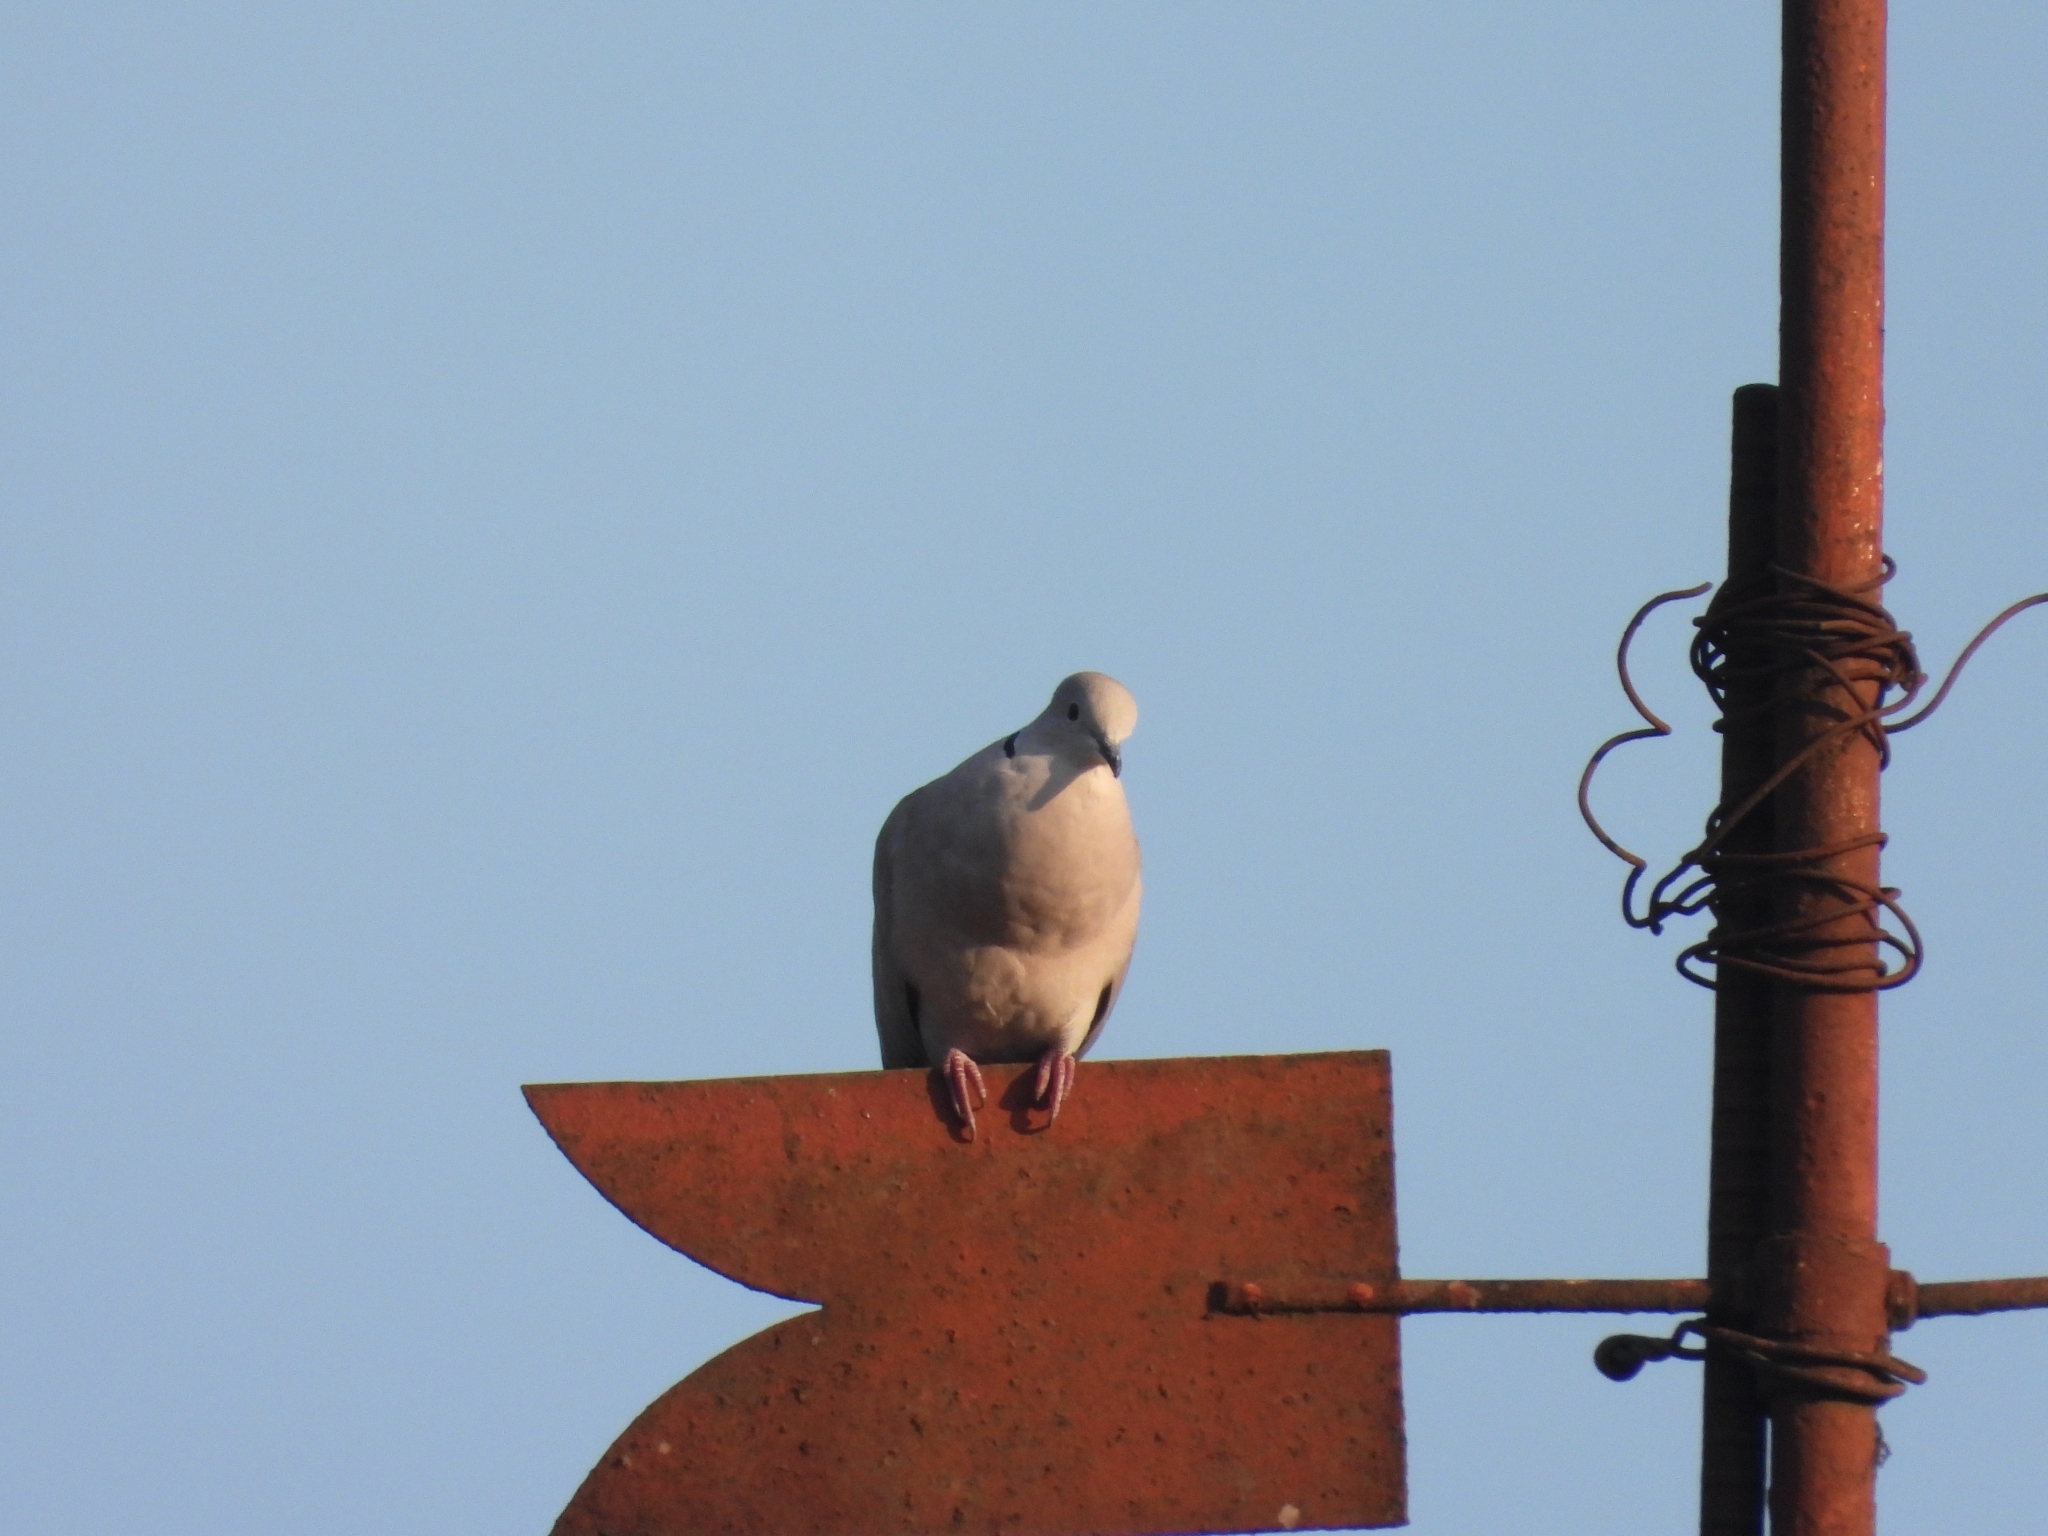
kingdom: Animalia
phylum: Chordata
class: Aves
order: Columbiformes
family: Columbidae
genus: Streptopelia
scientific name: Streptopelia decaocto
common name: Eurasian collared dove
